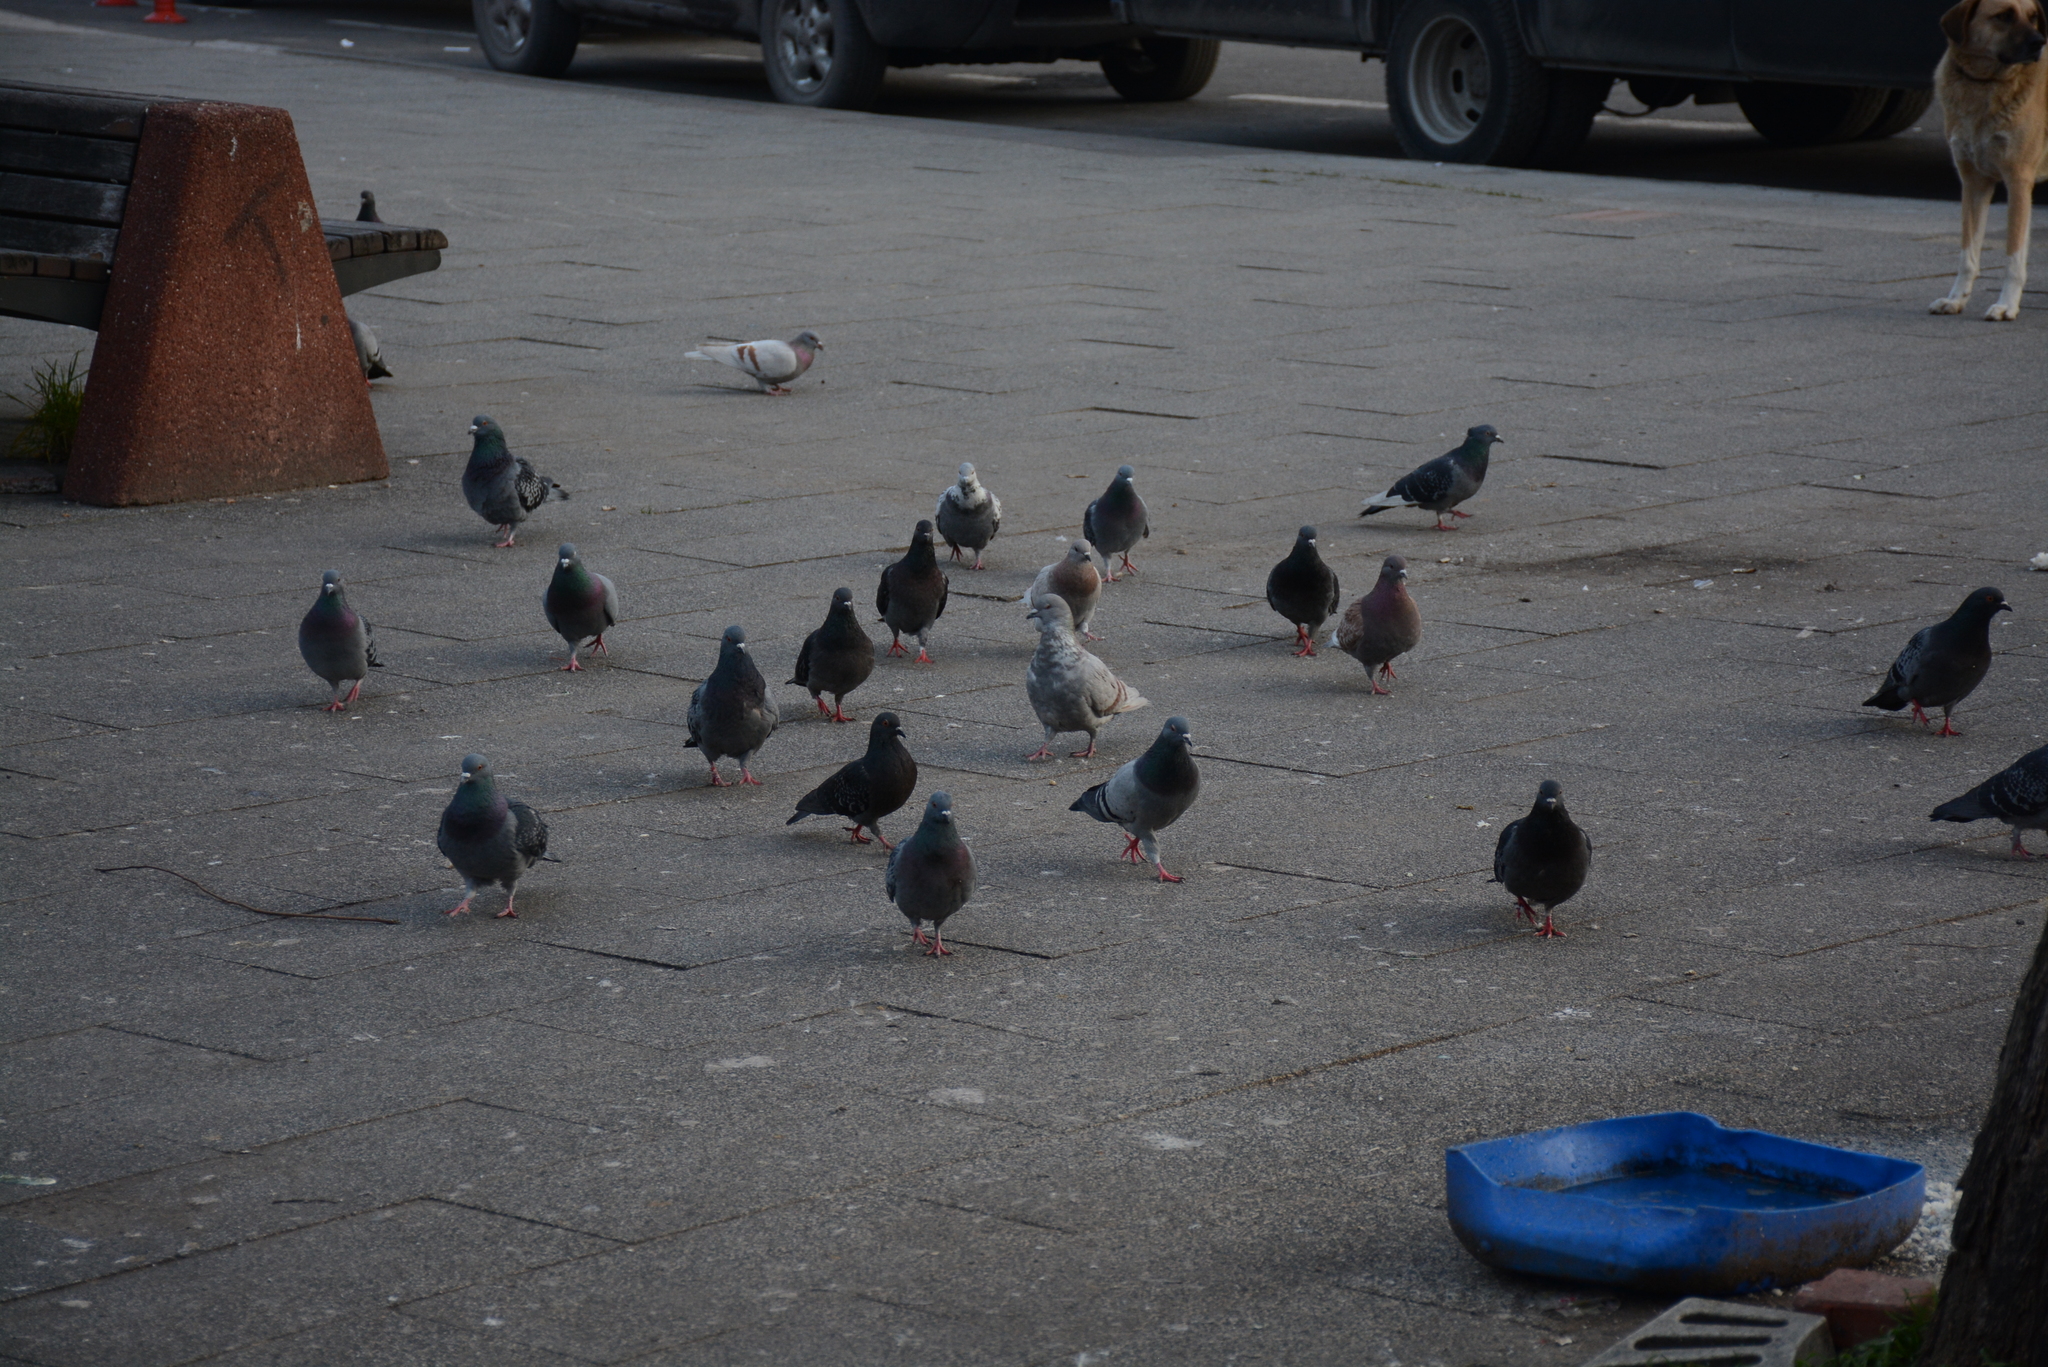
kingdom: Animalia
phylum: Chordata
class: Aves
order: Columbiformes
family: Columbidae
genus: Columba
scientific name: Columba livia
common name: Rock pigeon
